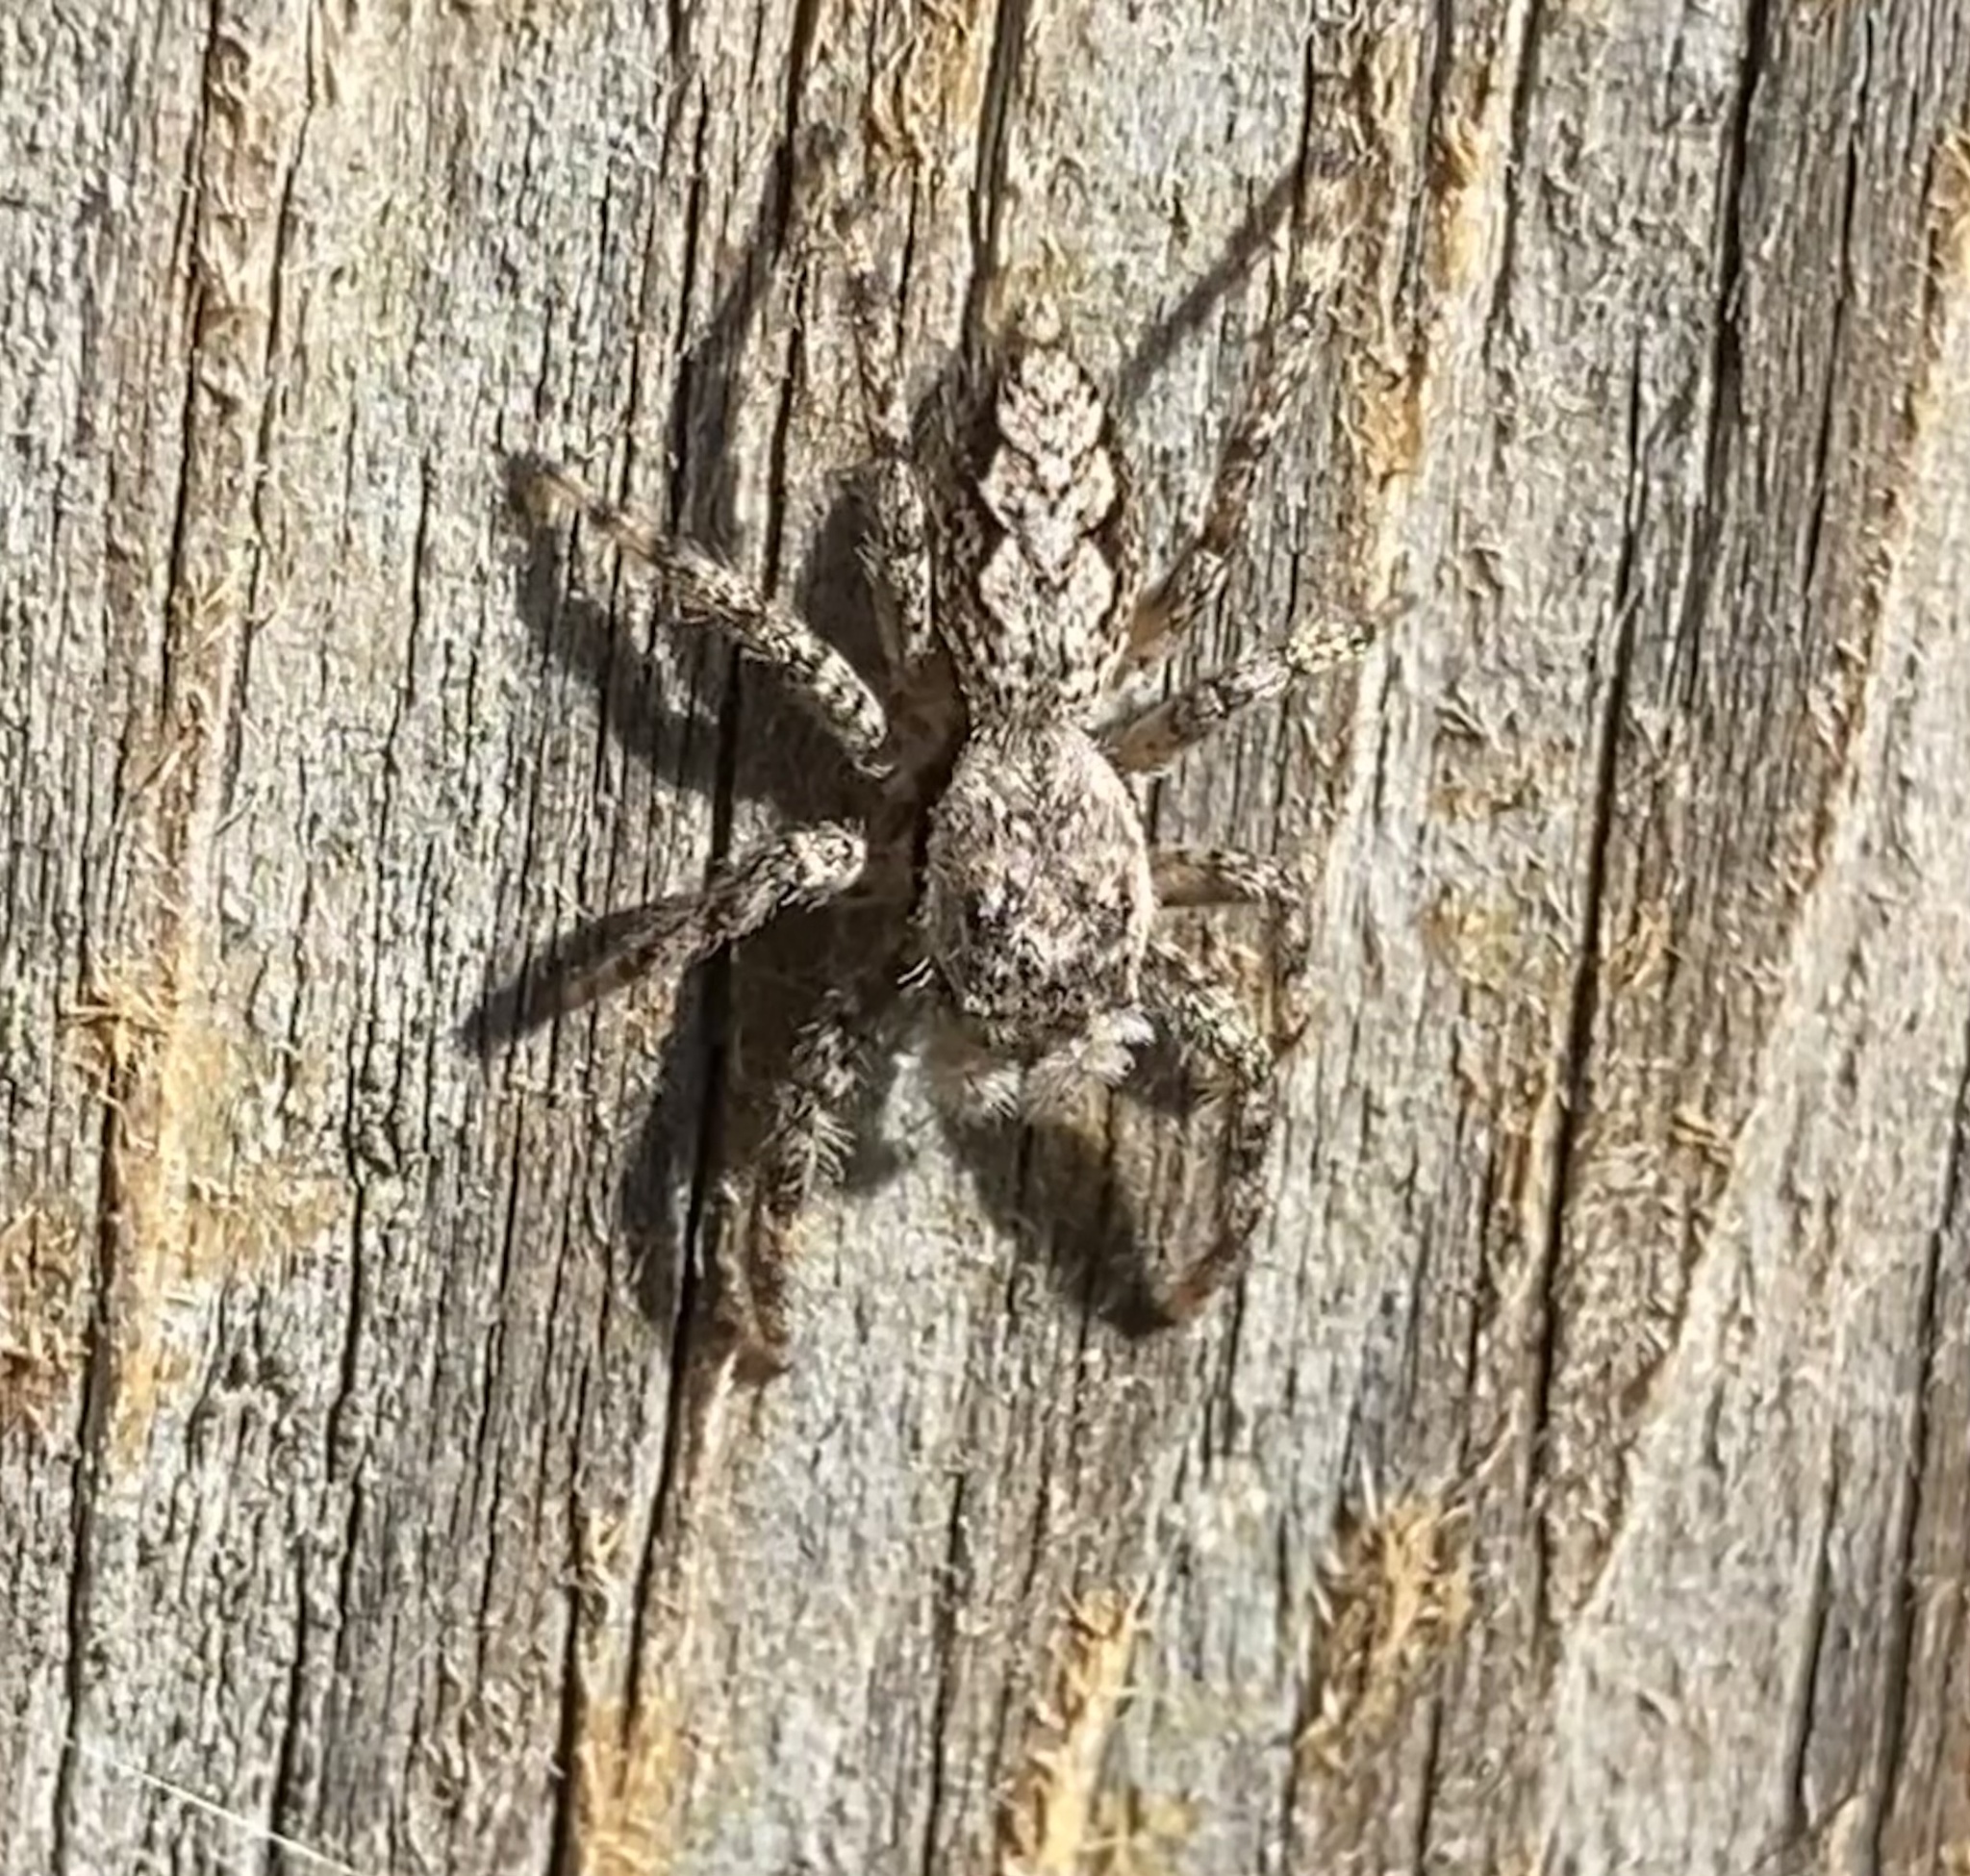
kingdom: Animalia
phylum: Arthropoda
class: Arachnida
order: Araneae
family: Salticidae
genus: Platycryptus
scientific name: Platycryptus undatus
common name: Tan jumping spider
